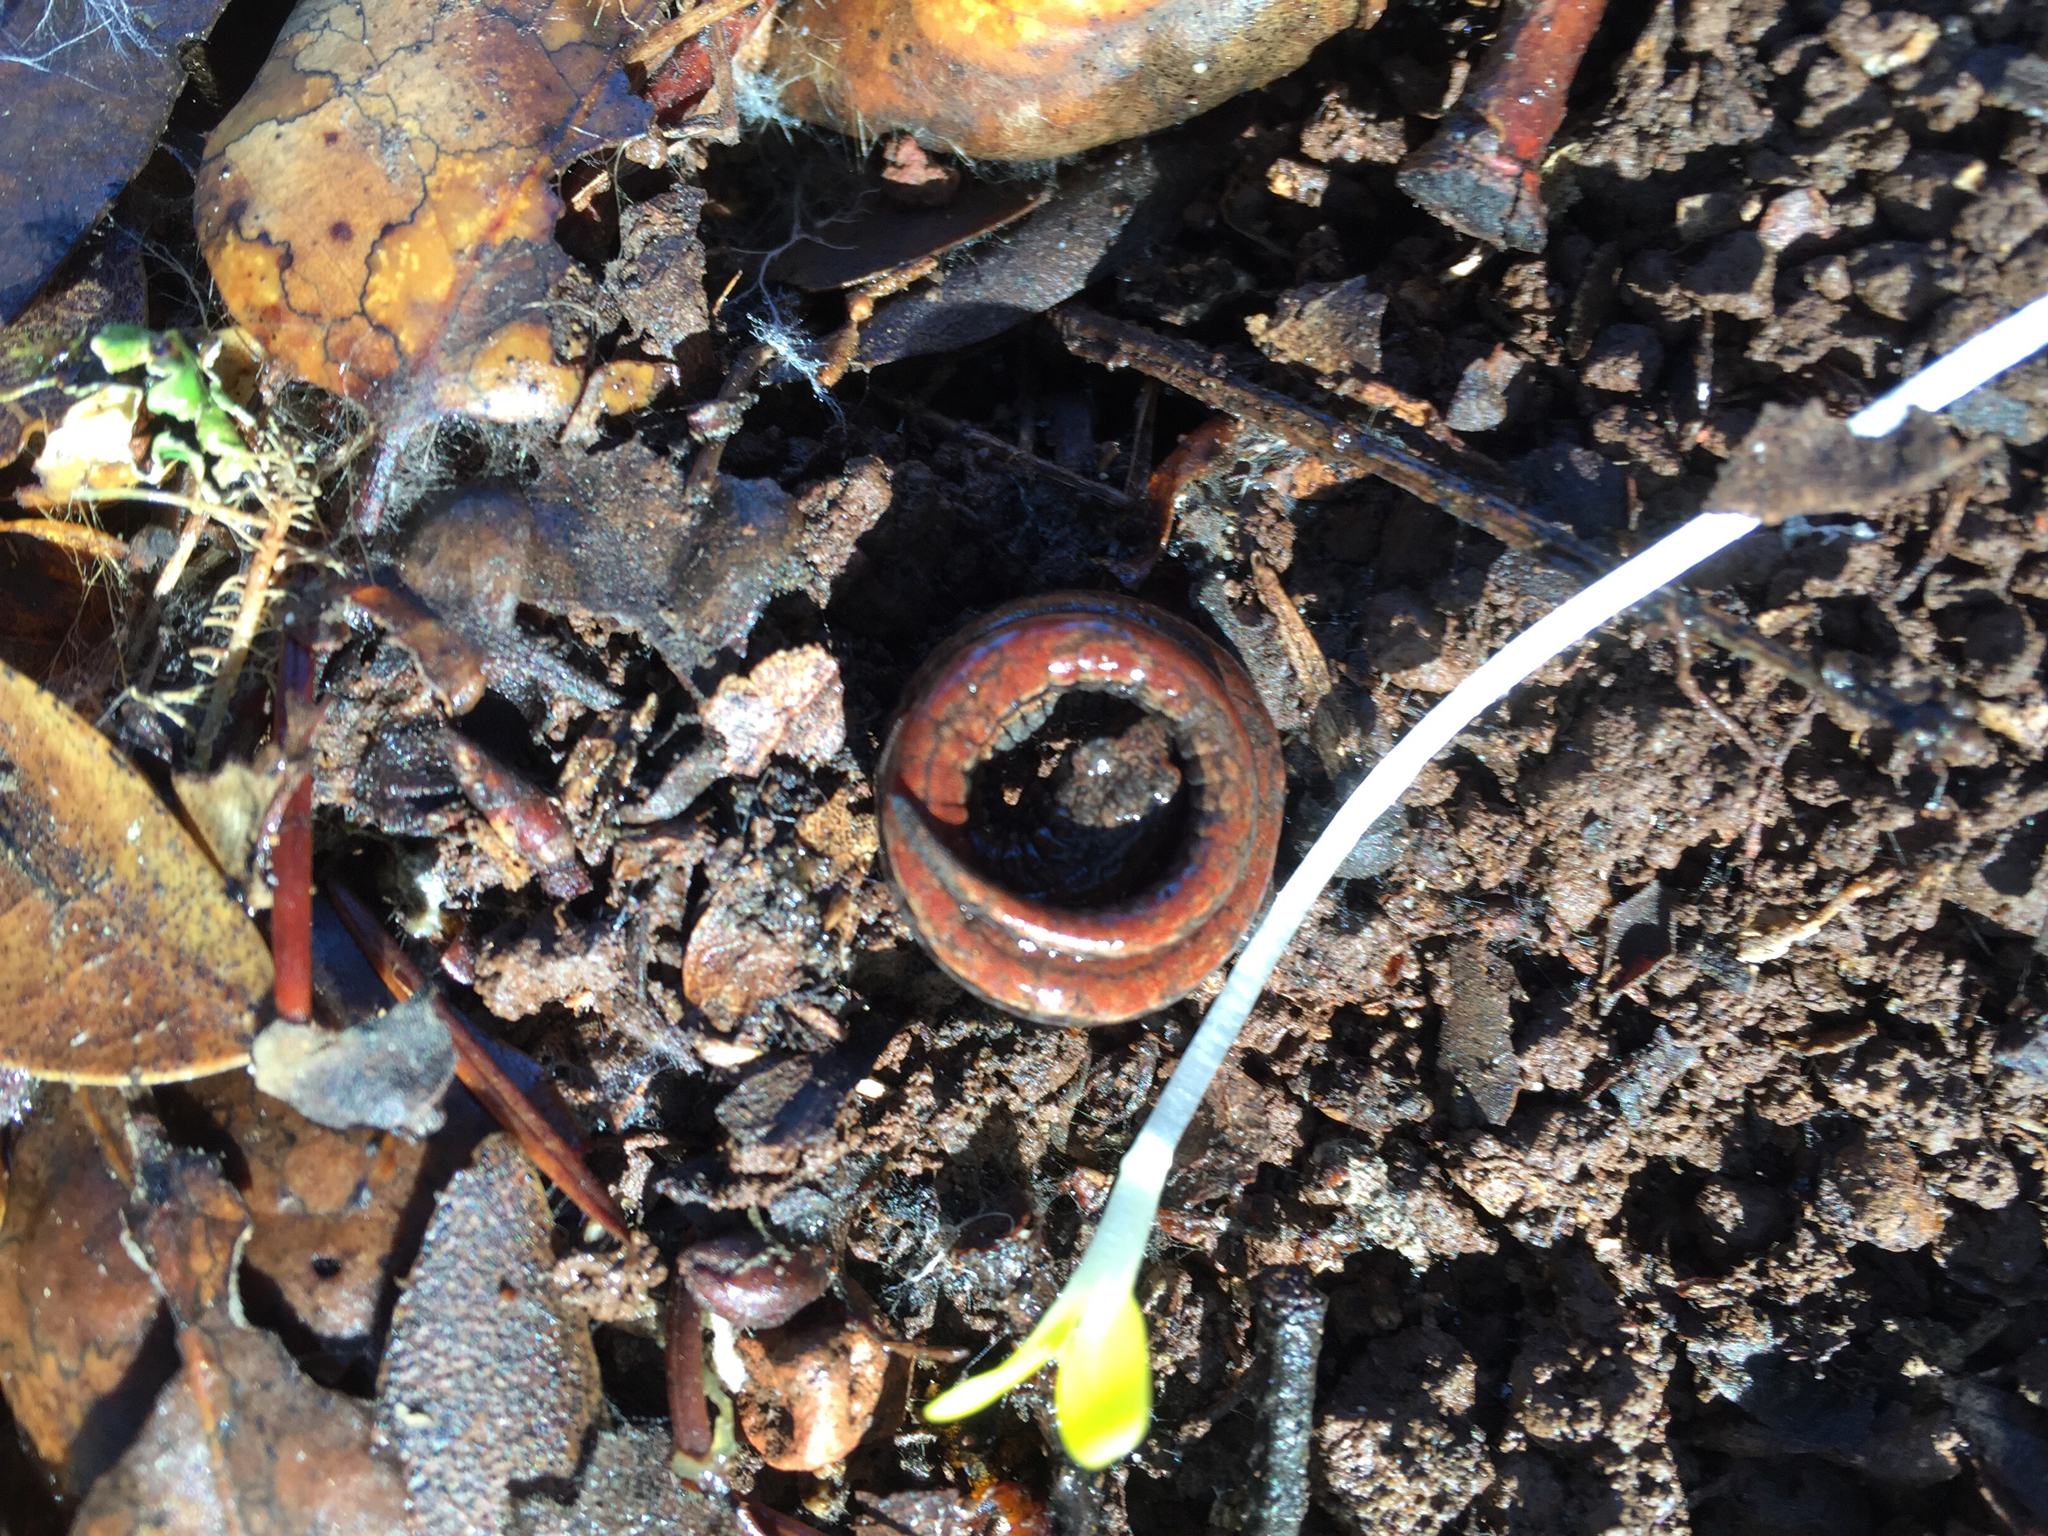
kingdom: Animalia
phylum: Chordata
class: Amphibia
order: Caudata
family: Plethodontidae
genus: Batrachoseps
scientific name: Batrachoseps attenuatus
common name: California slender salamander
